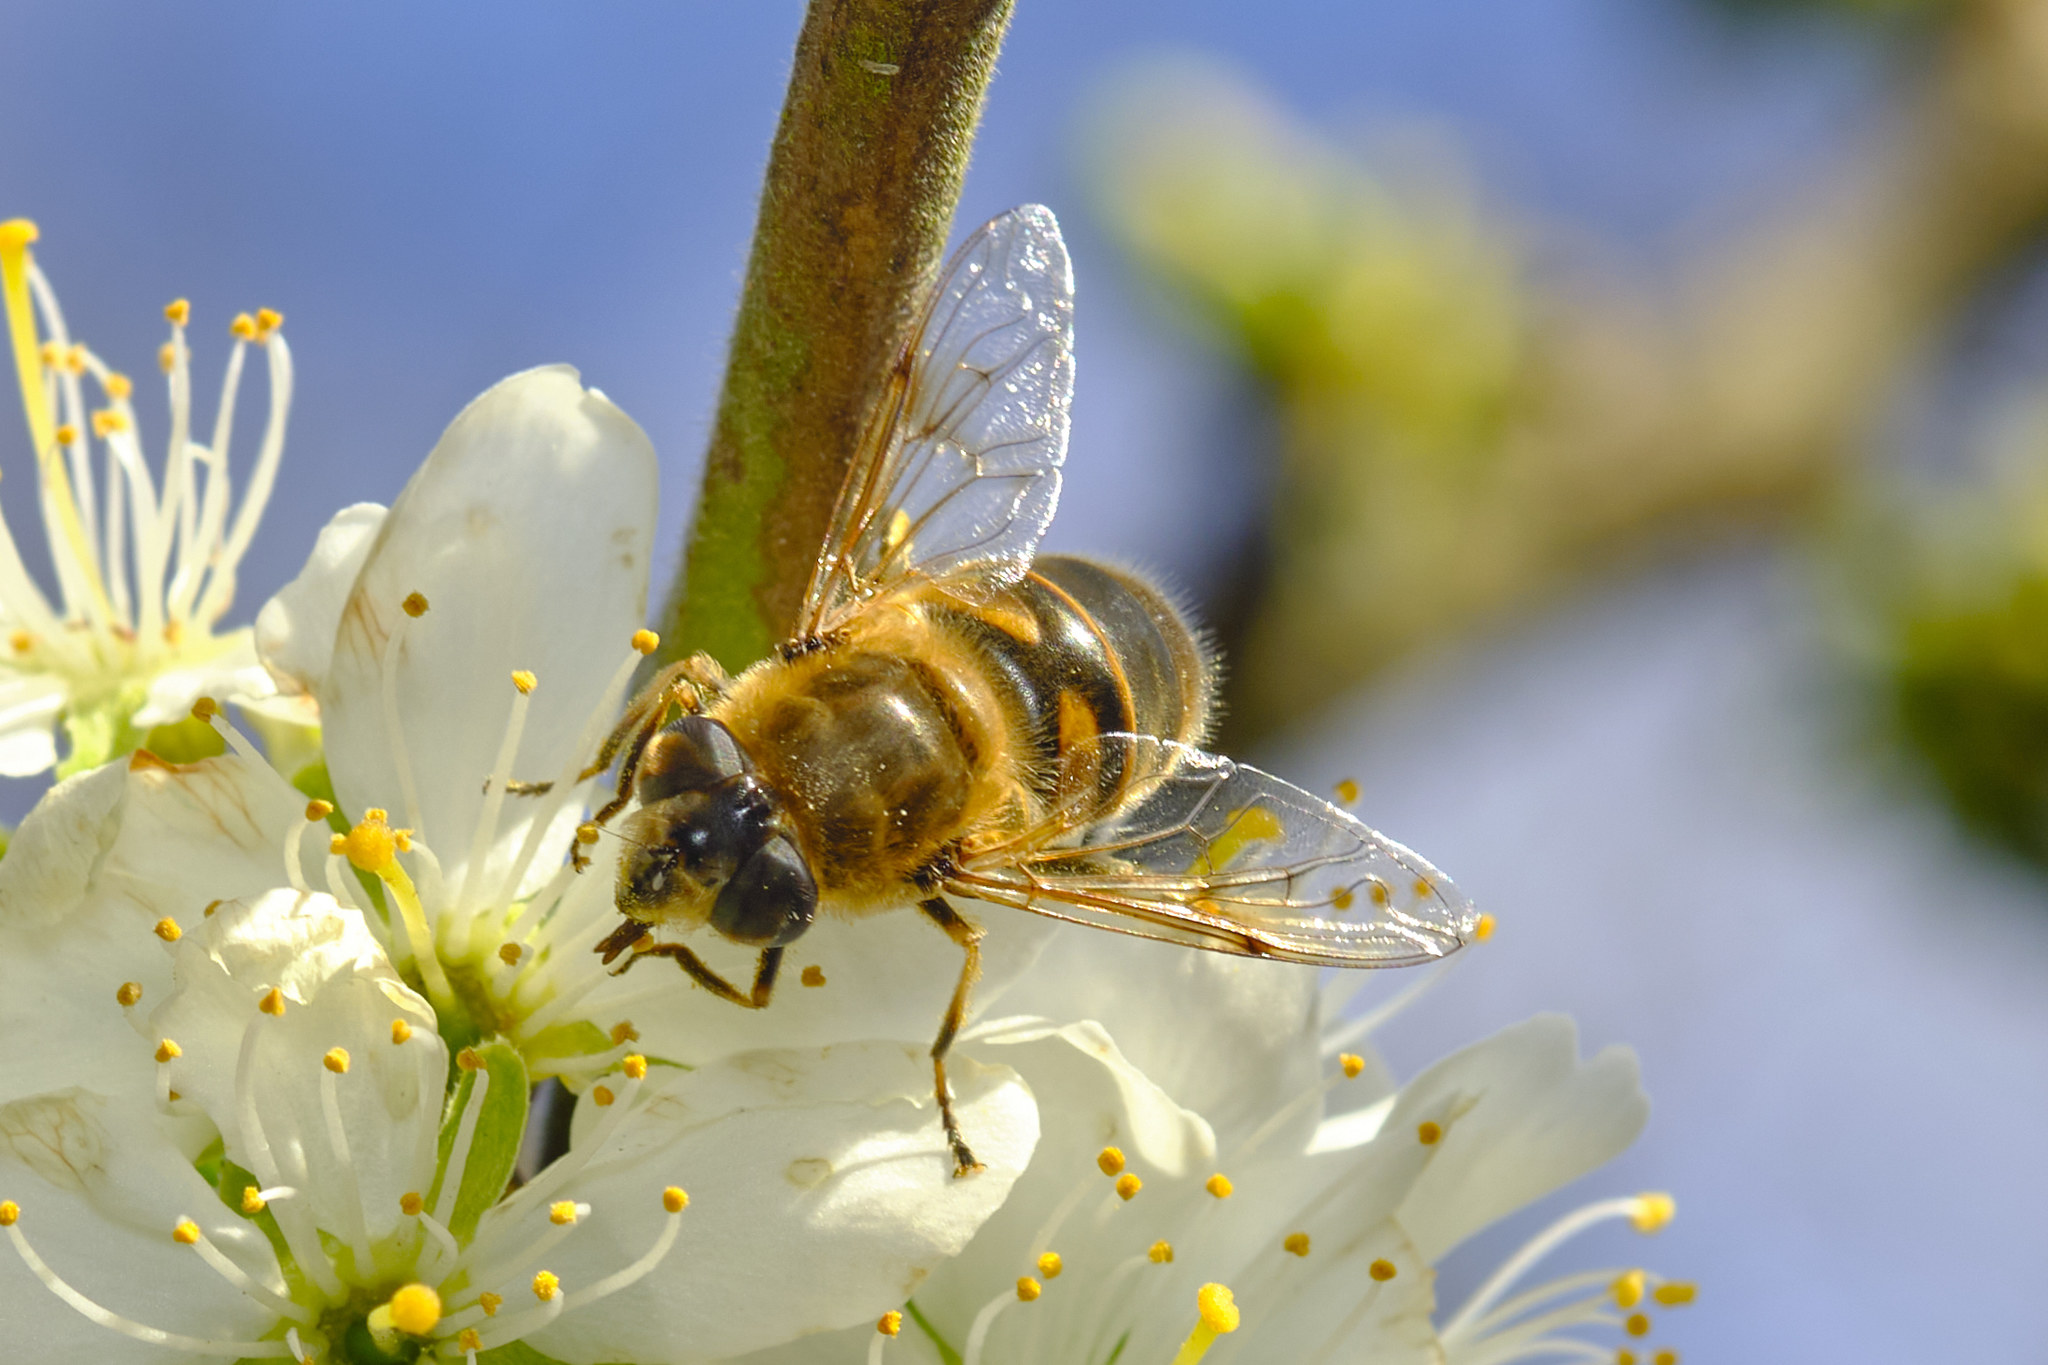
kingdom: Animalia
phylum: Arthropoda
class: Insecta
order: Diptera
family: Syrphidae
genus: Eristalis
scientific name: Eristalis tenax
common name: Drone fly
